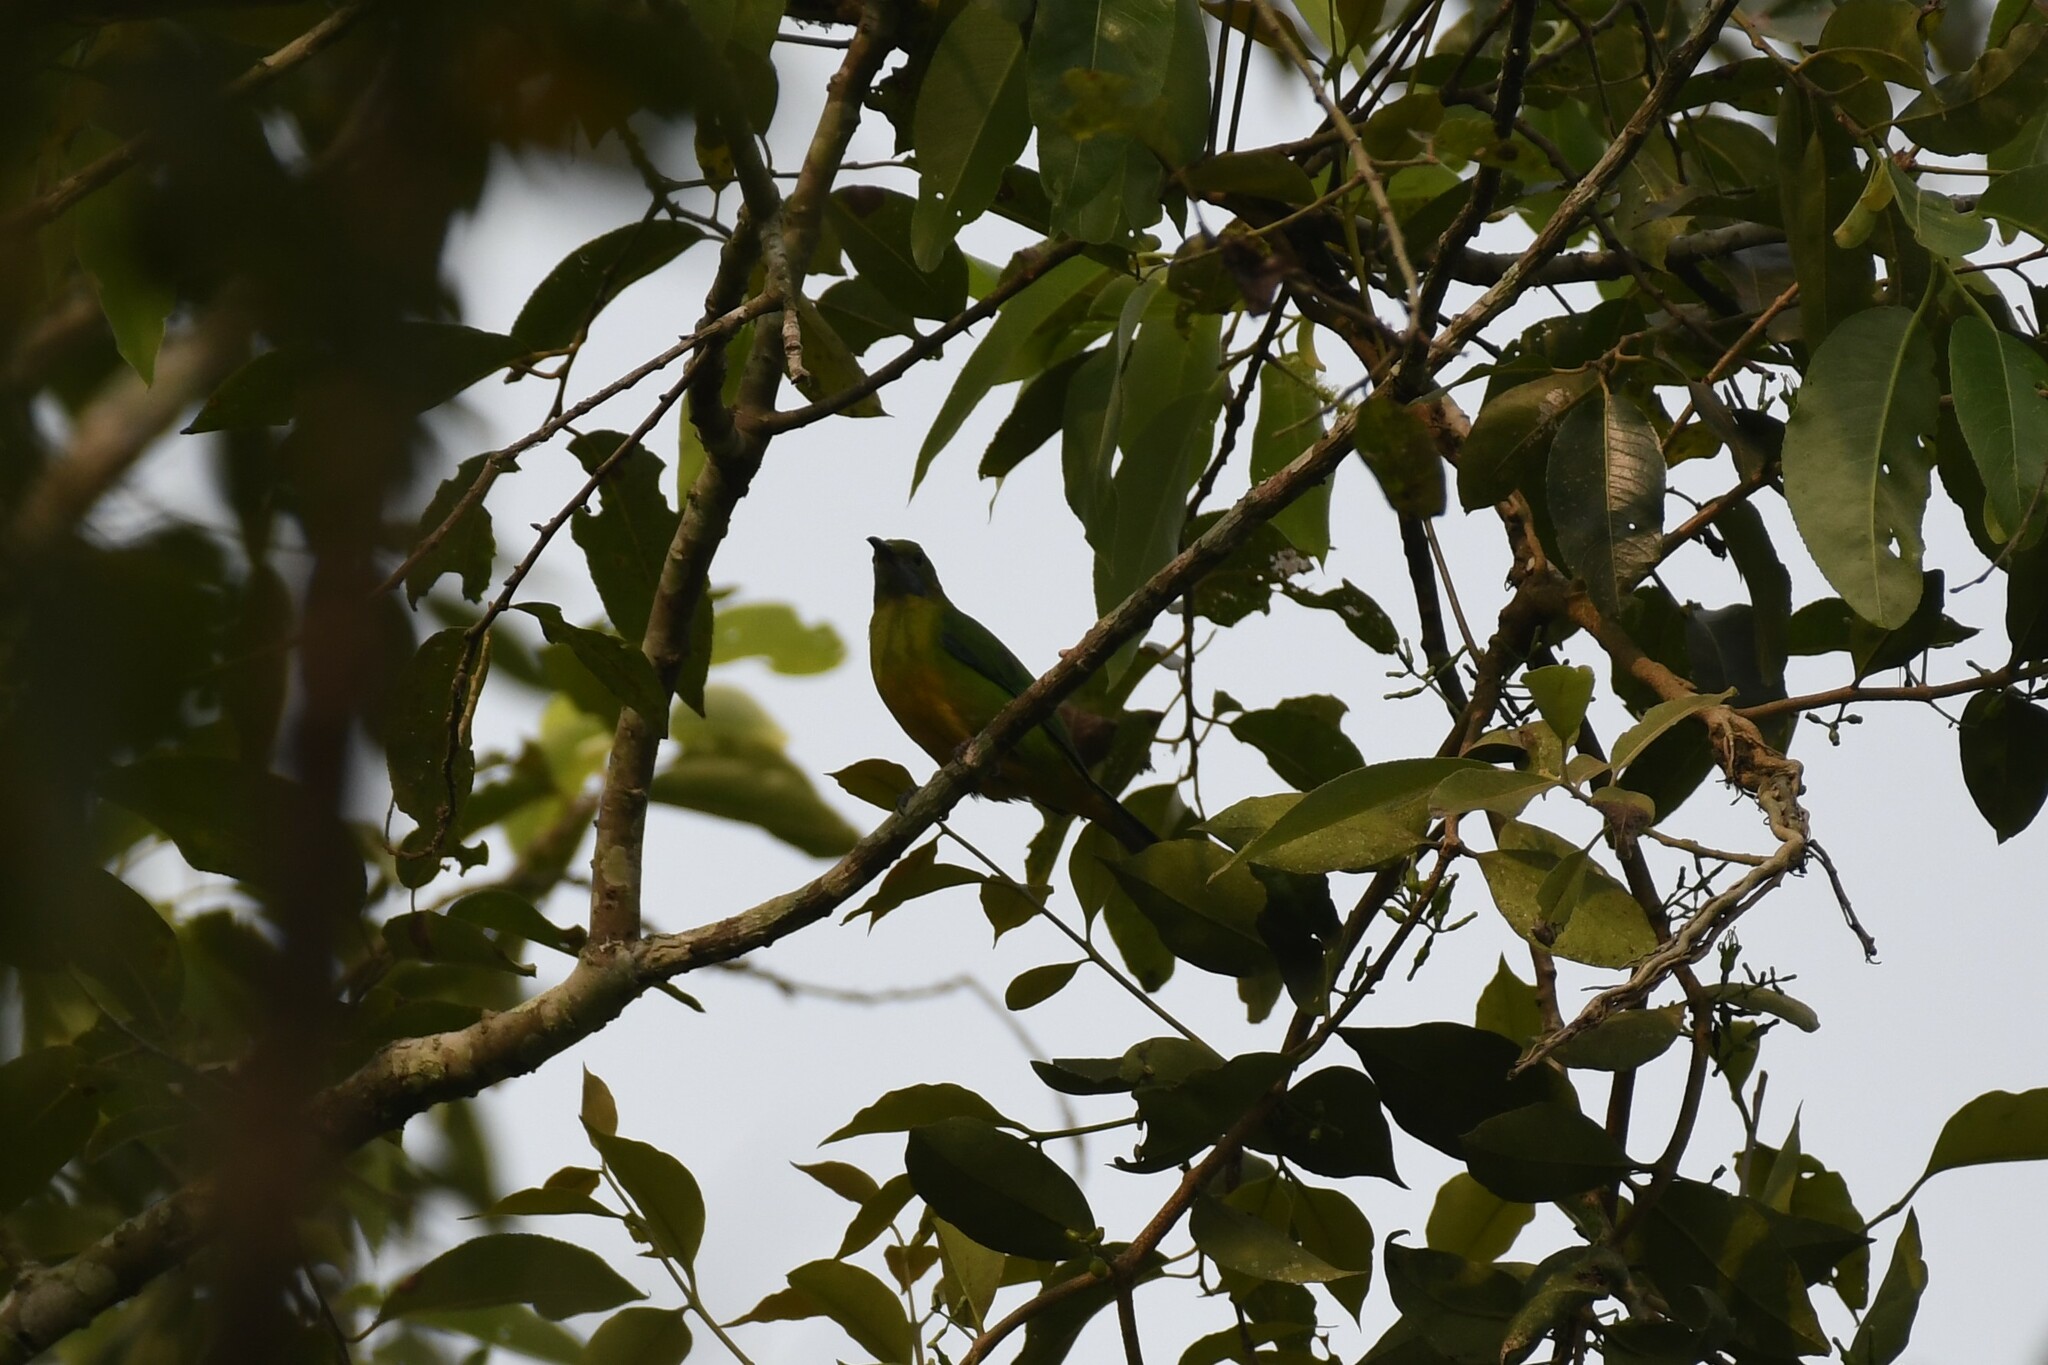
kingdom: Animalia
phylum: Chordata
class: Aves
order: Passeriformes
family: Chloropseidae
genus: Chloropsis
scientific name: Chloropsis hardwickii
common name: Orange-bellied leafbird
